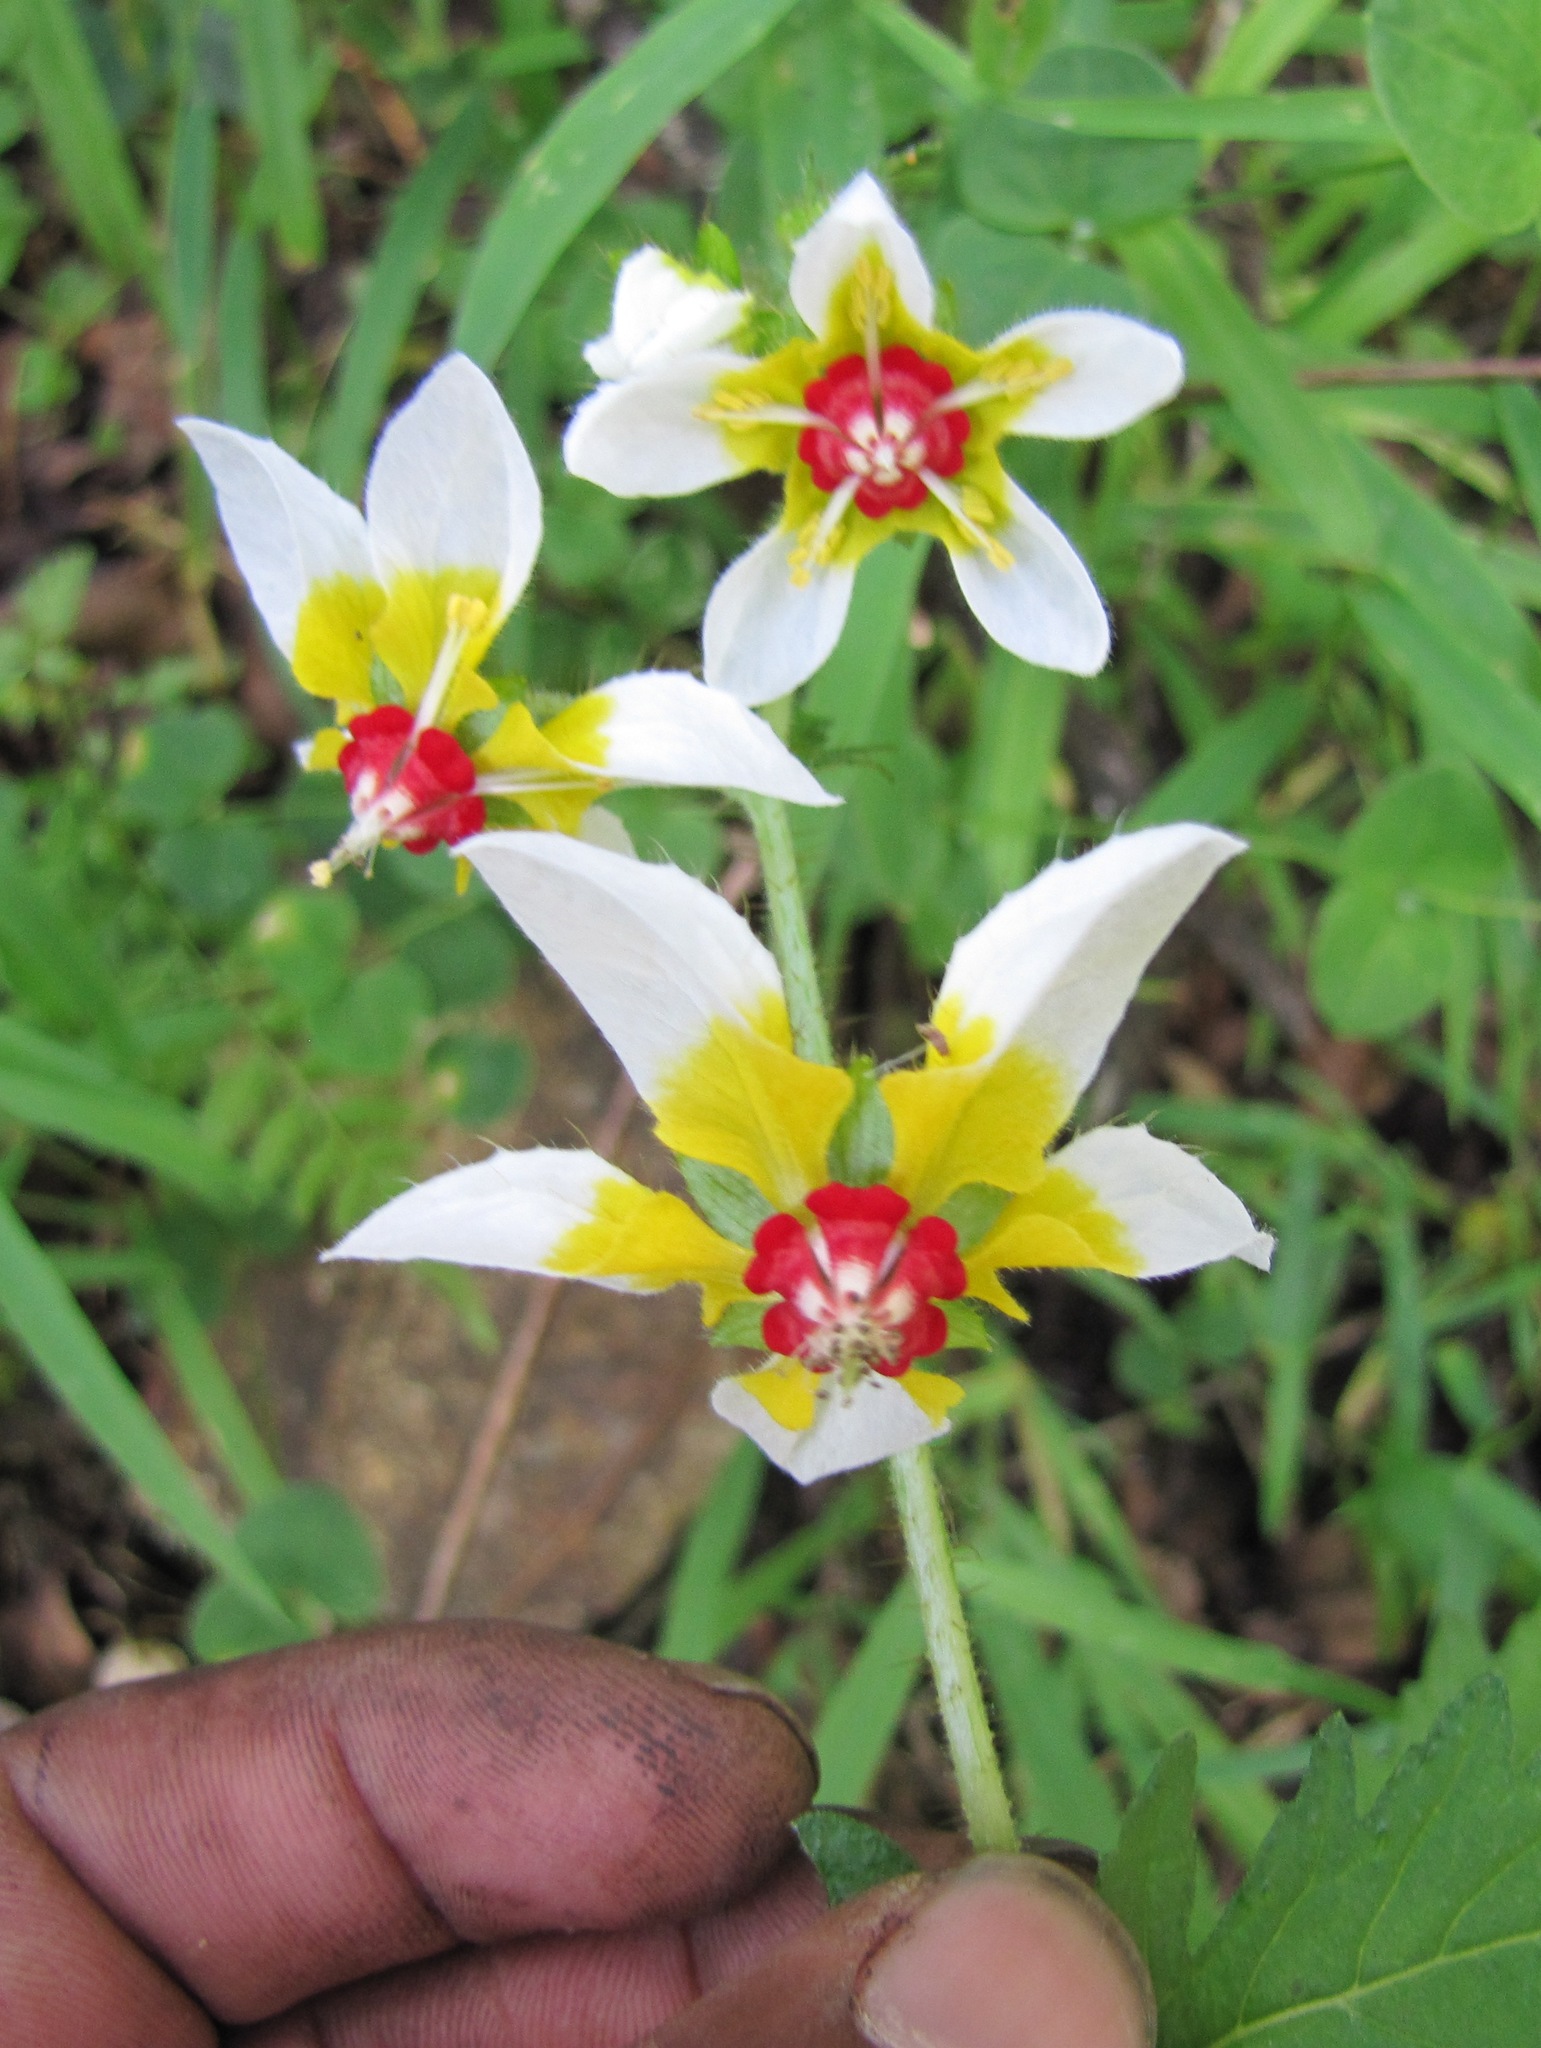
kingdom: Plantae
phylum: Tracheophyta
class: Magnoliopsida
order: Cornales
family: Loasaceae
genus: Nasa
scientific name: Nasa picta
